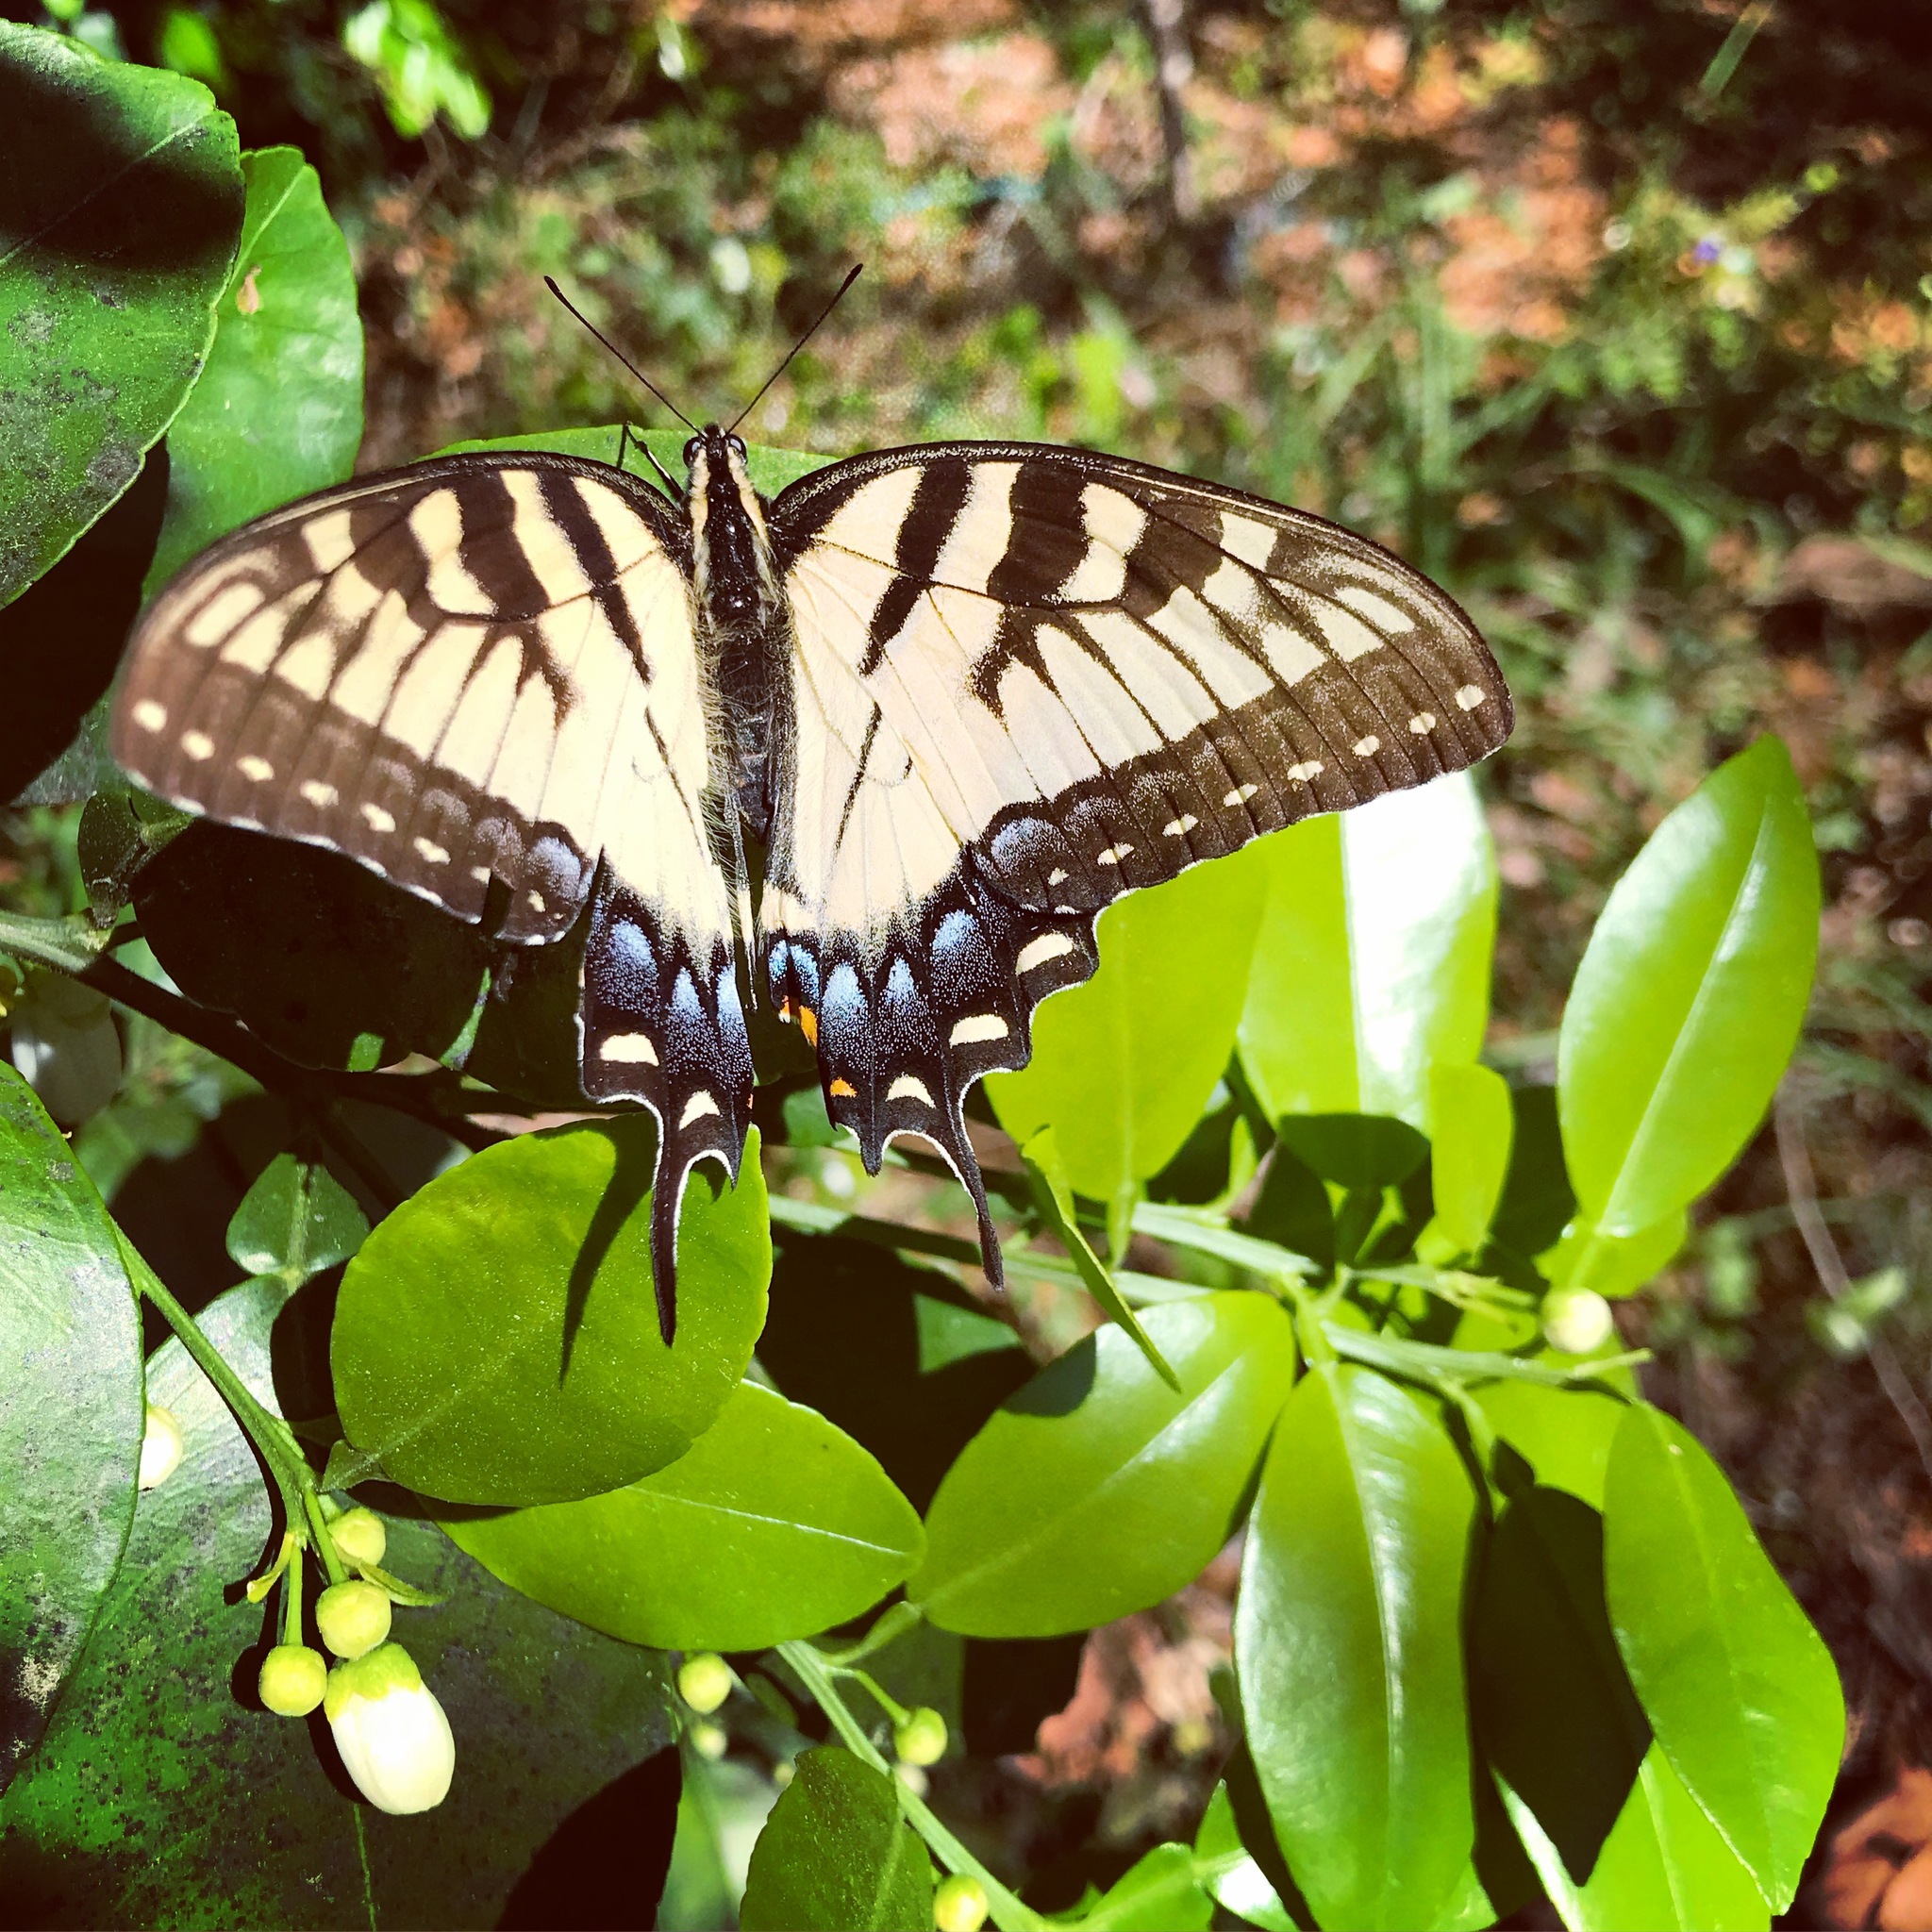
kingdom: Animalia
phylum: Arthropoda
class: Insecta
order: Lepidoptera
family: Papilionidae
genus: Papilio
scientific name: Papilio glaucus
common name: Tiger swallowtail
